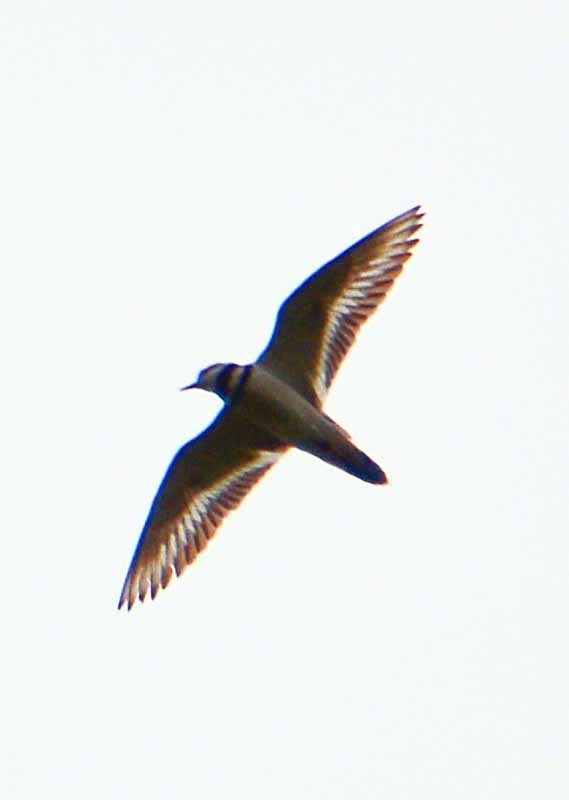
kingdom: Animalia
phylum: Chordata
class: Aves
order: Charadriiformes
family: Charadriidae
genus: Charadrius
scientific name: Charadrius vociferus
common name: Killdeer
